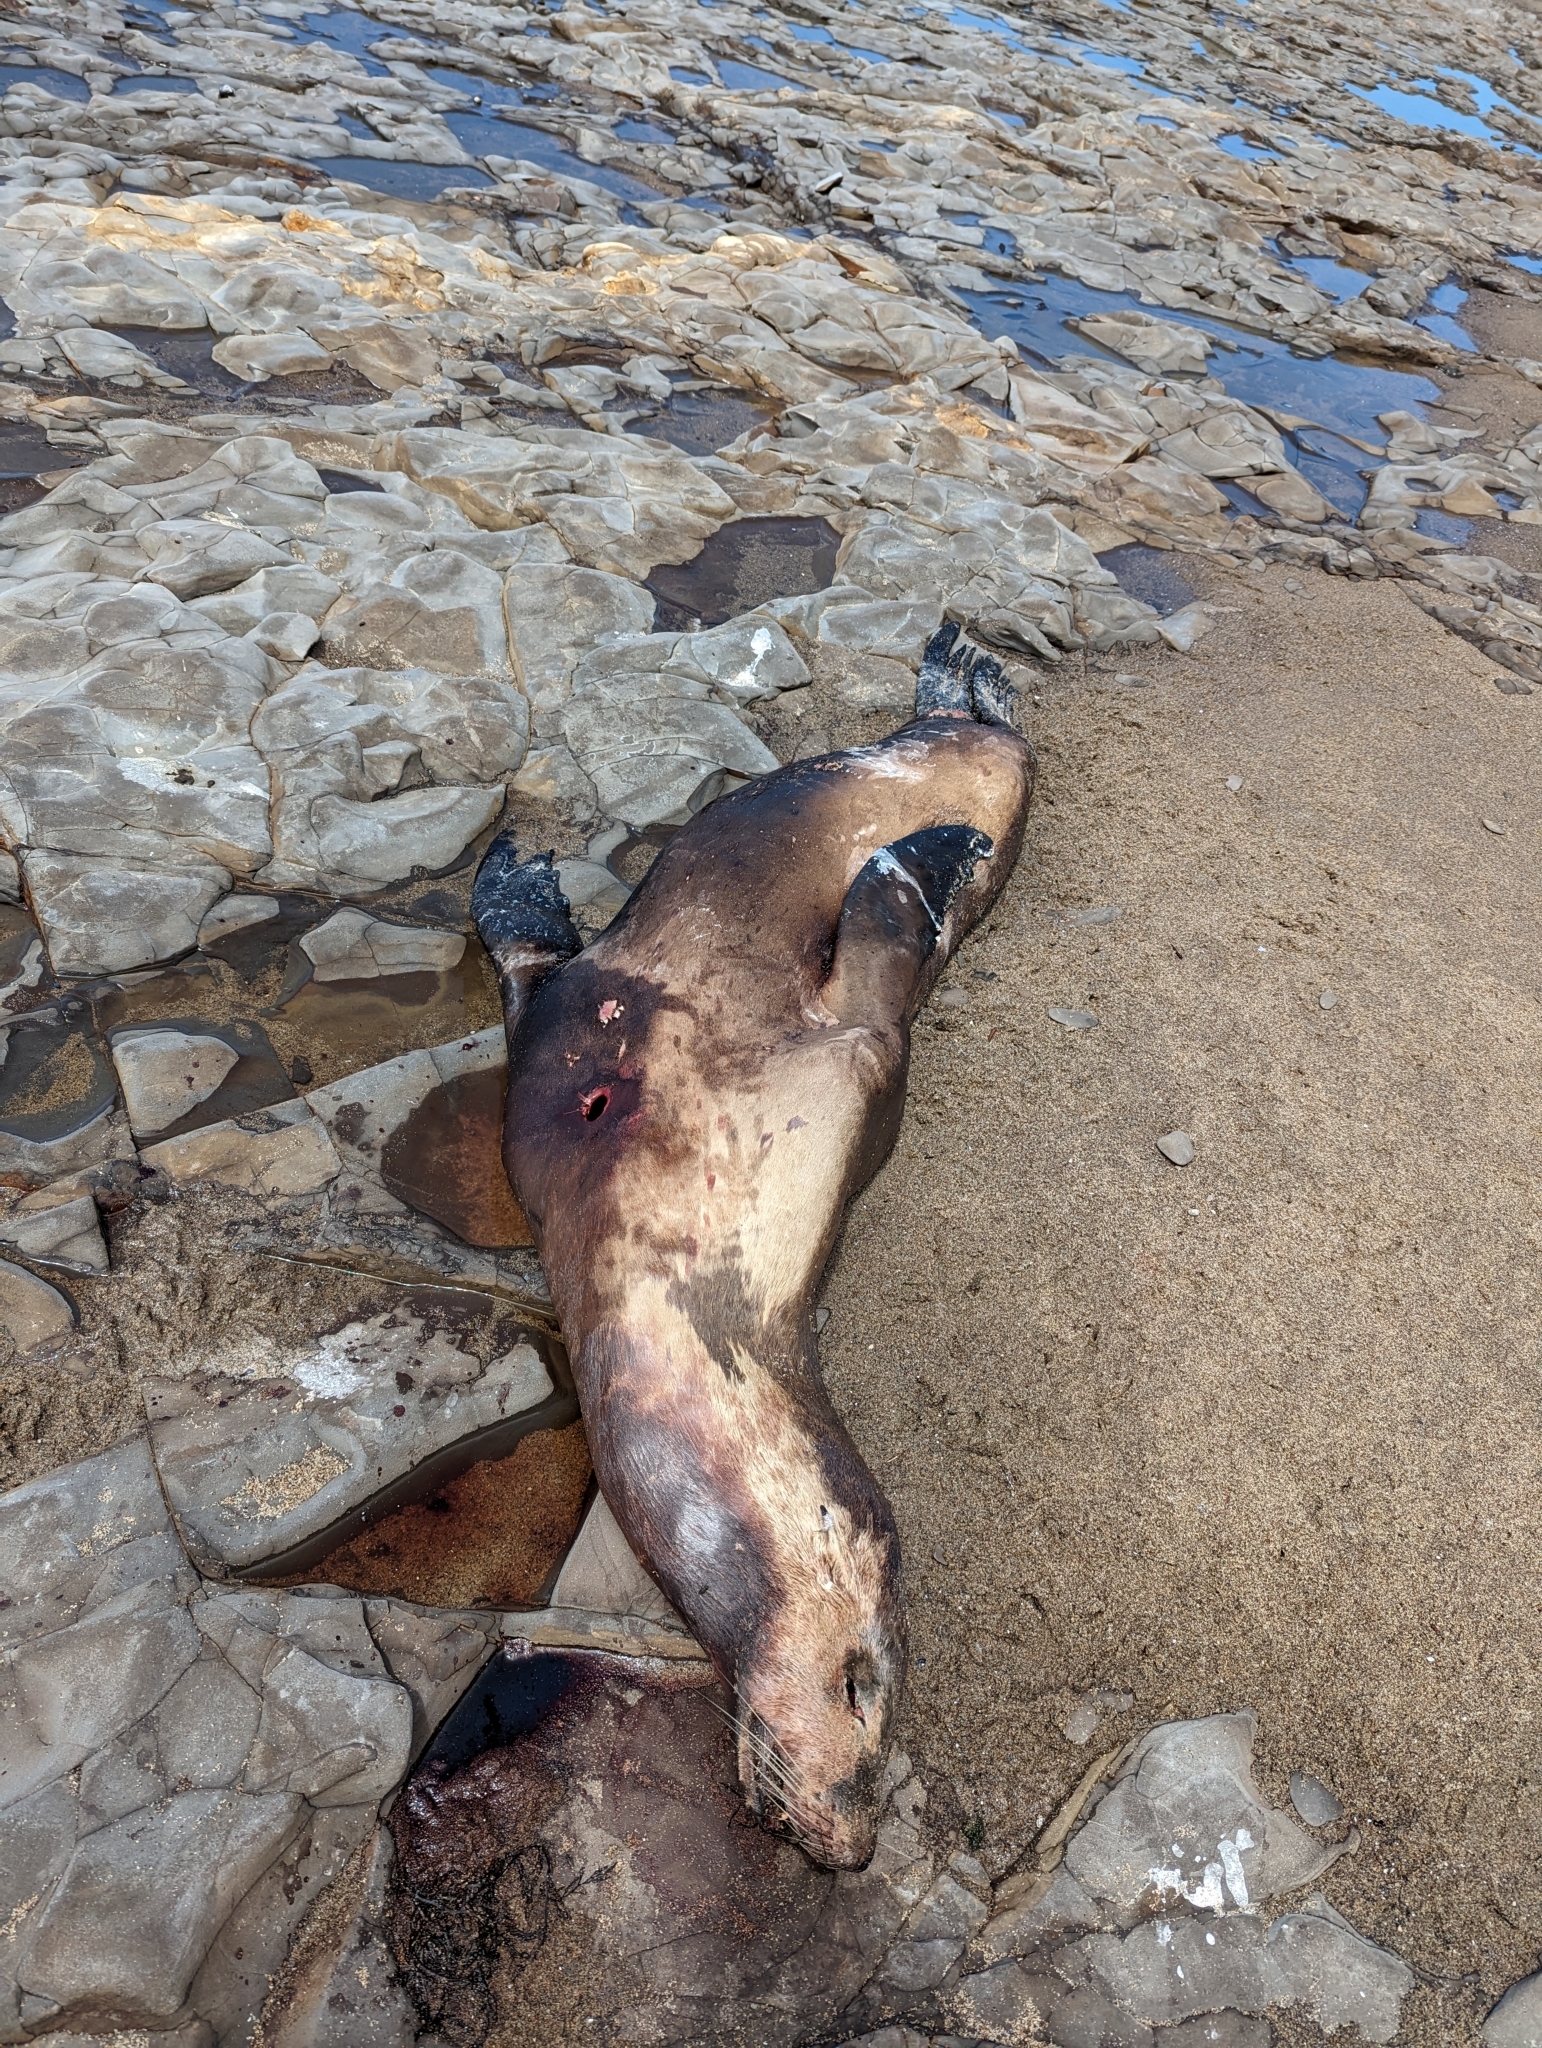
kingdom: Animalia
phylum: Chordata
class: Mammalia
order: Carnivora
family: Otariidae
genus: Zalophus
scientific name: Zalophus californianus
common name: California sea lion
